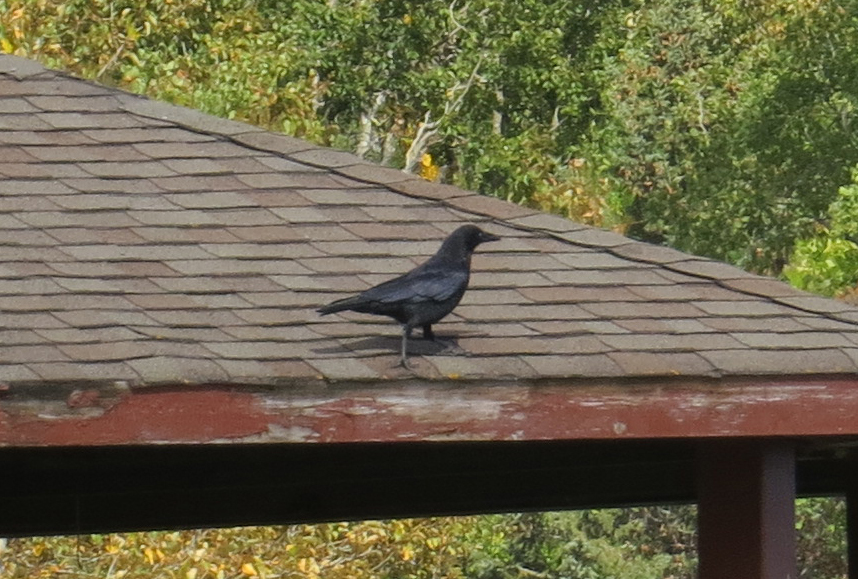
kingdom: Animalia
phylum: Chordata
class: Aves
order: Passeriformes
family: Corvidae
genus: Corvus
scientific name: Corvus brachyrhynchos
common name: American crow
